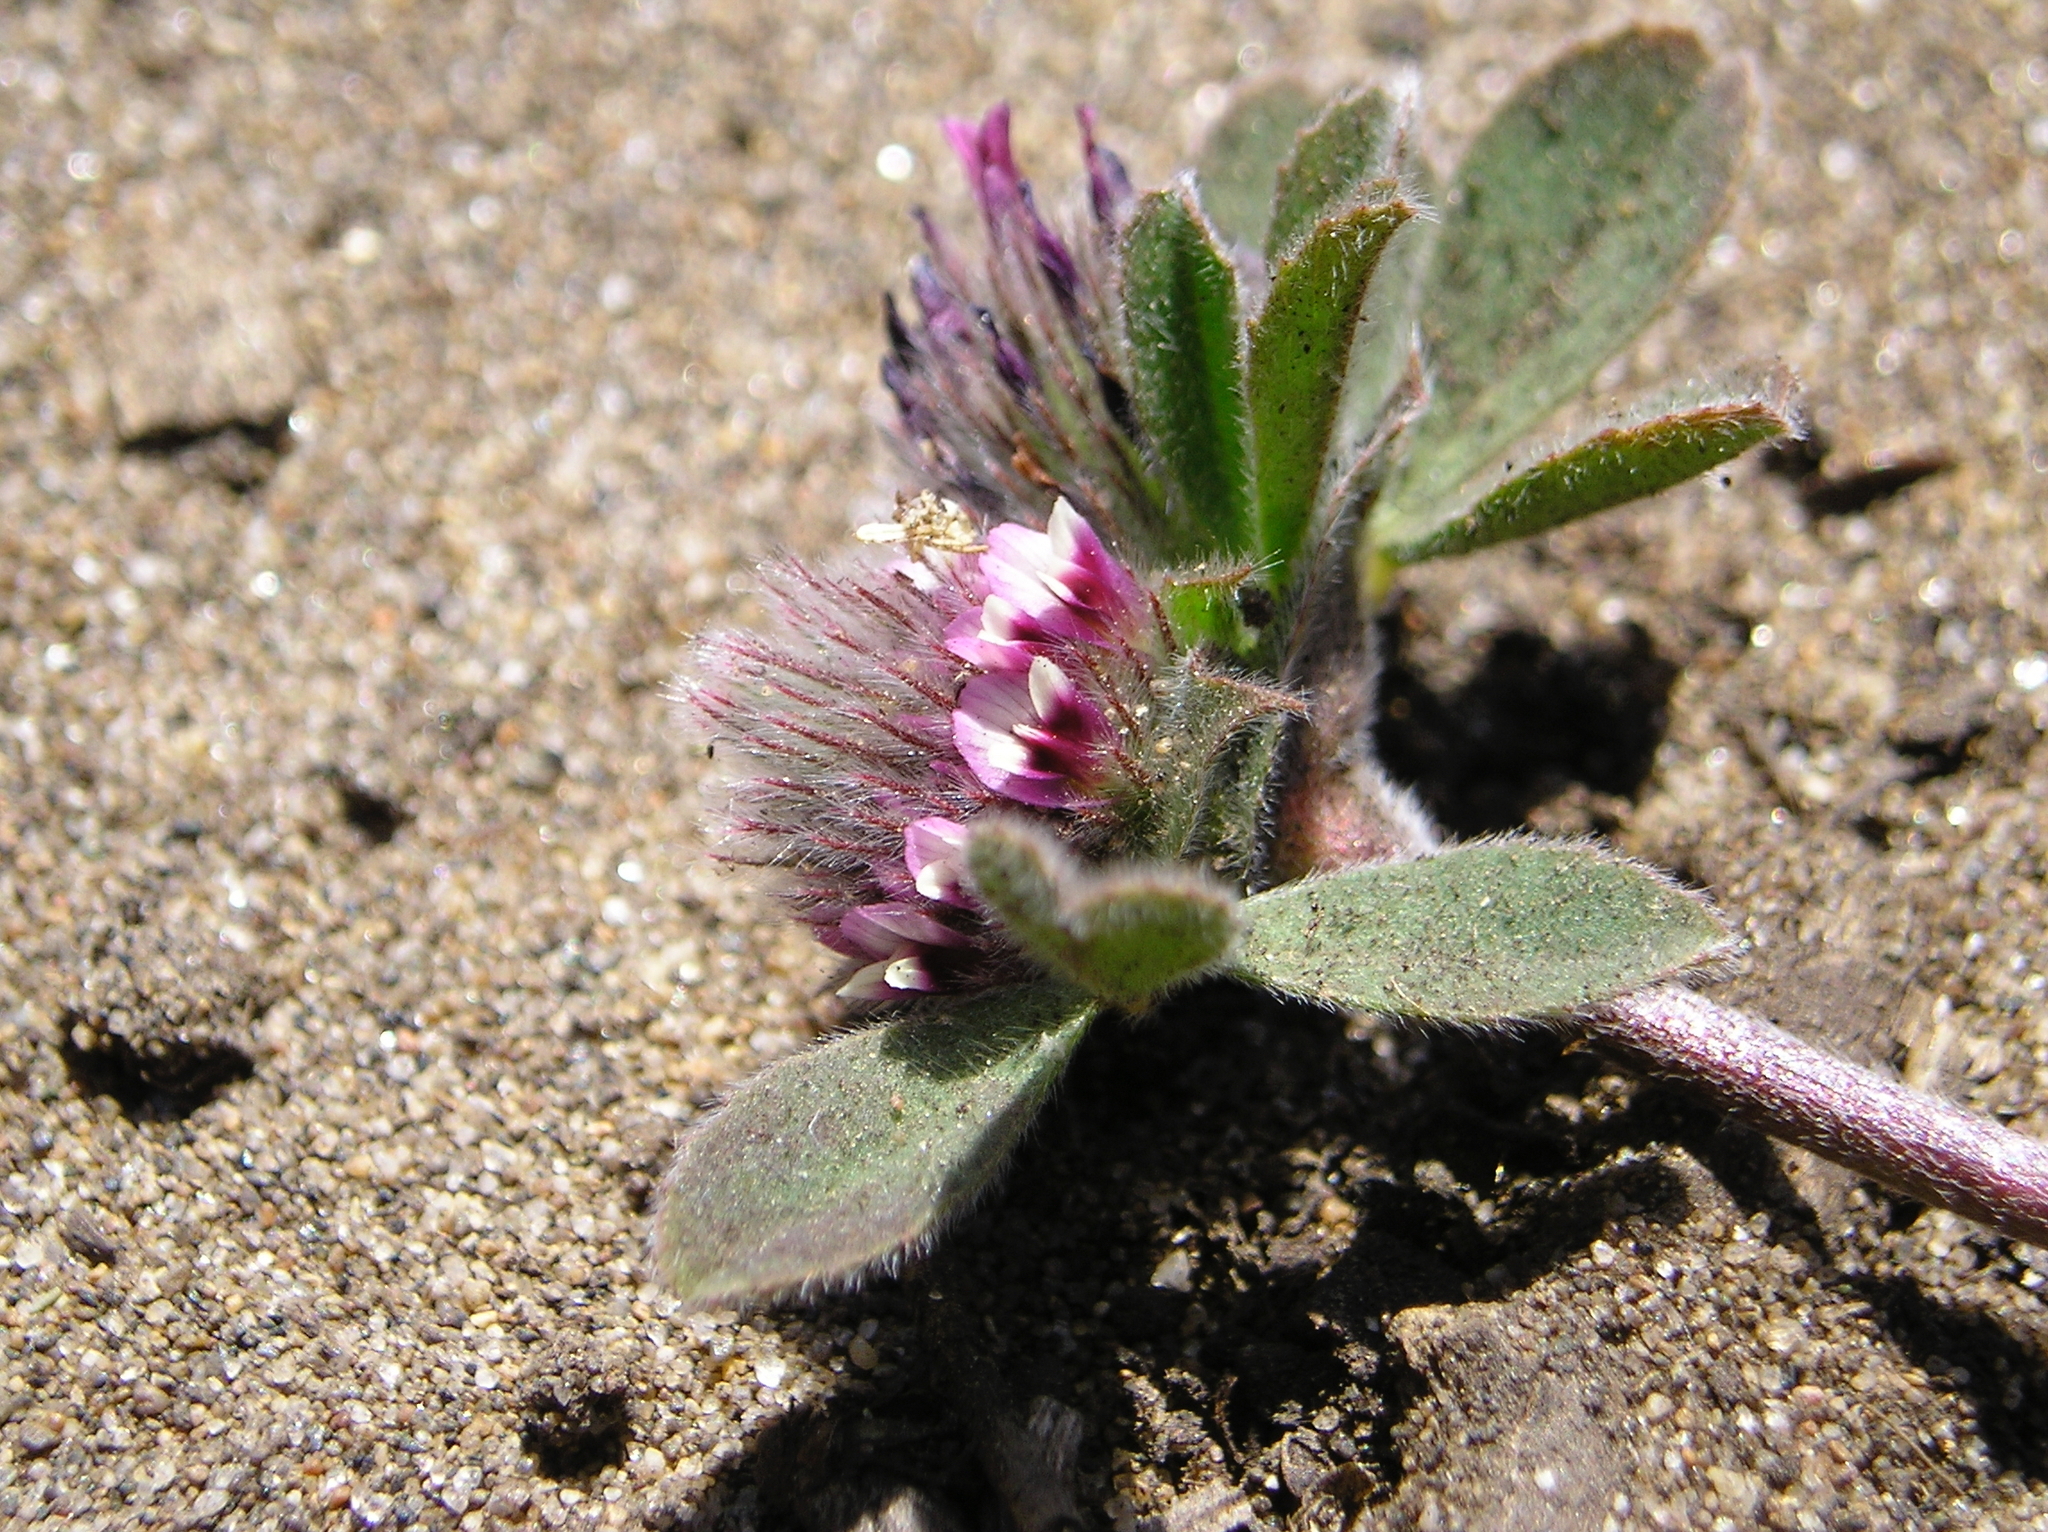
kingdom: Plantae
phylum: Tracheophyta
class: Magnoliopsida
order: Fabales
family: Fabaceae
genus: Trifolium
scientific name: Trifolium macraei
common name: Macrae's clover
